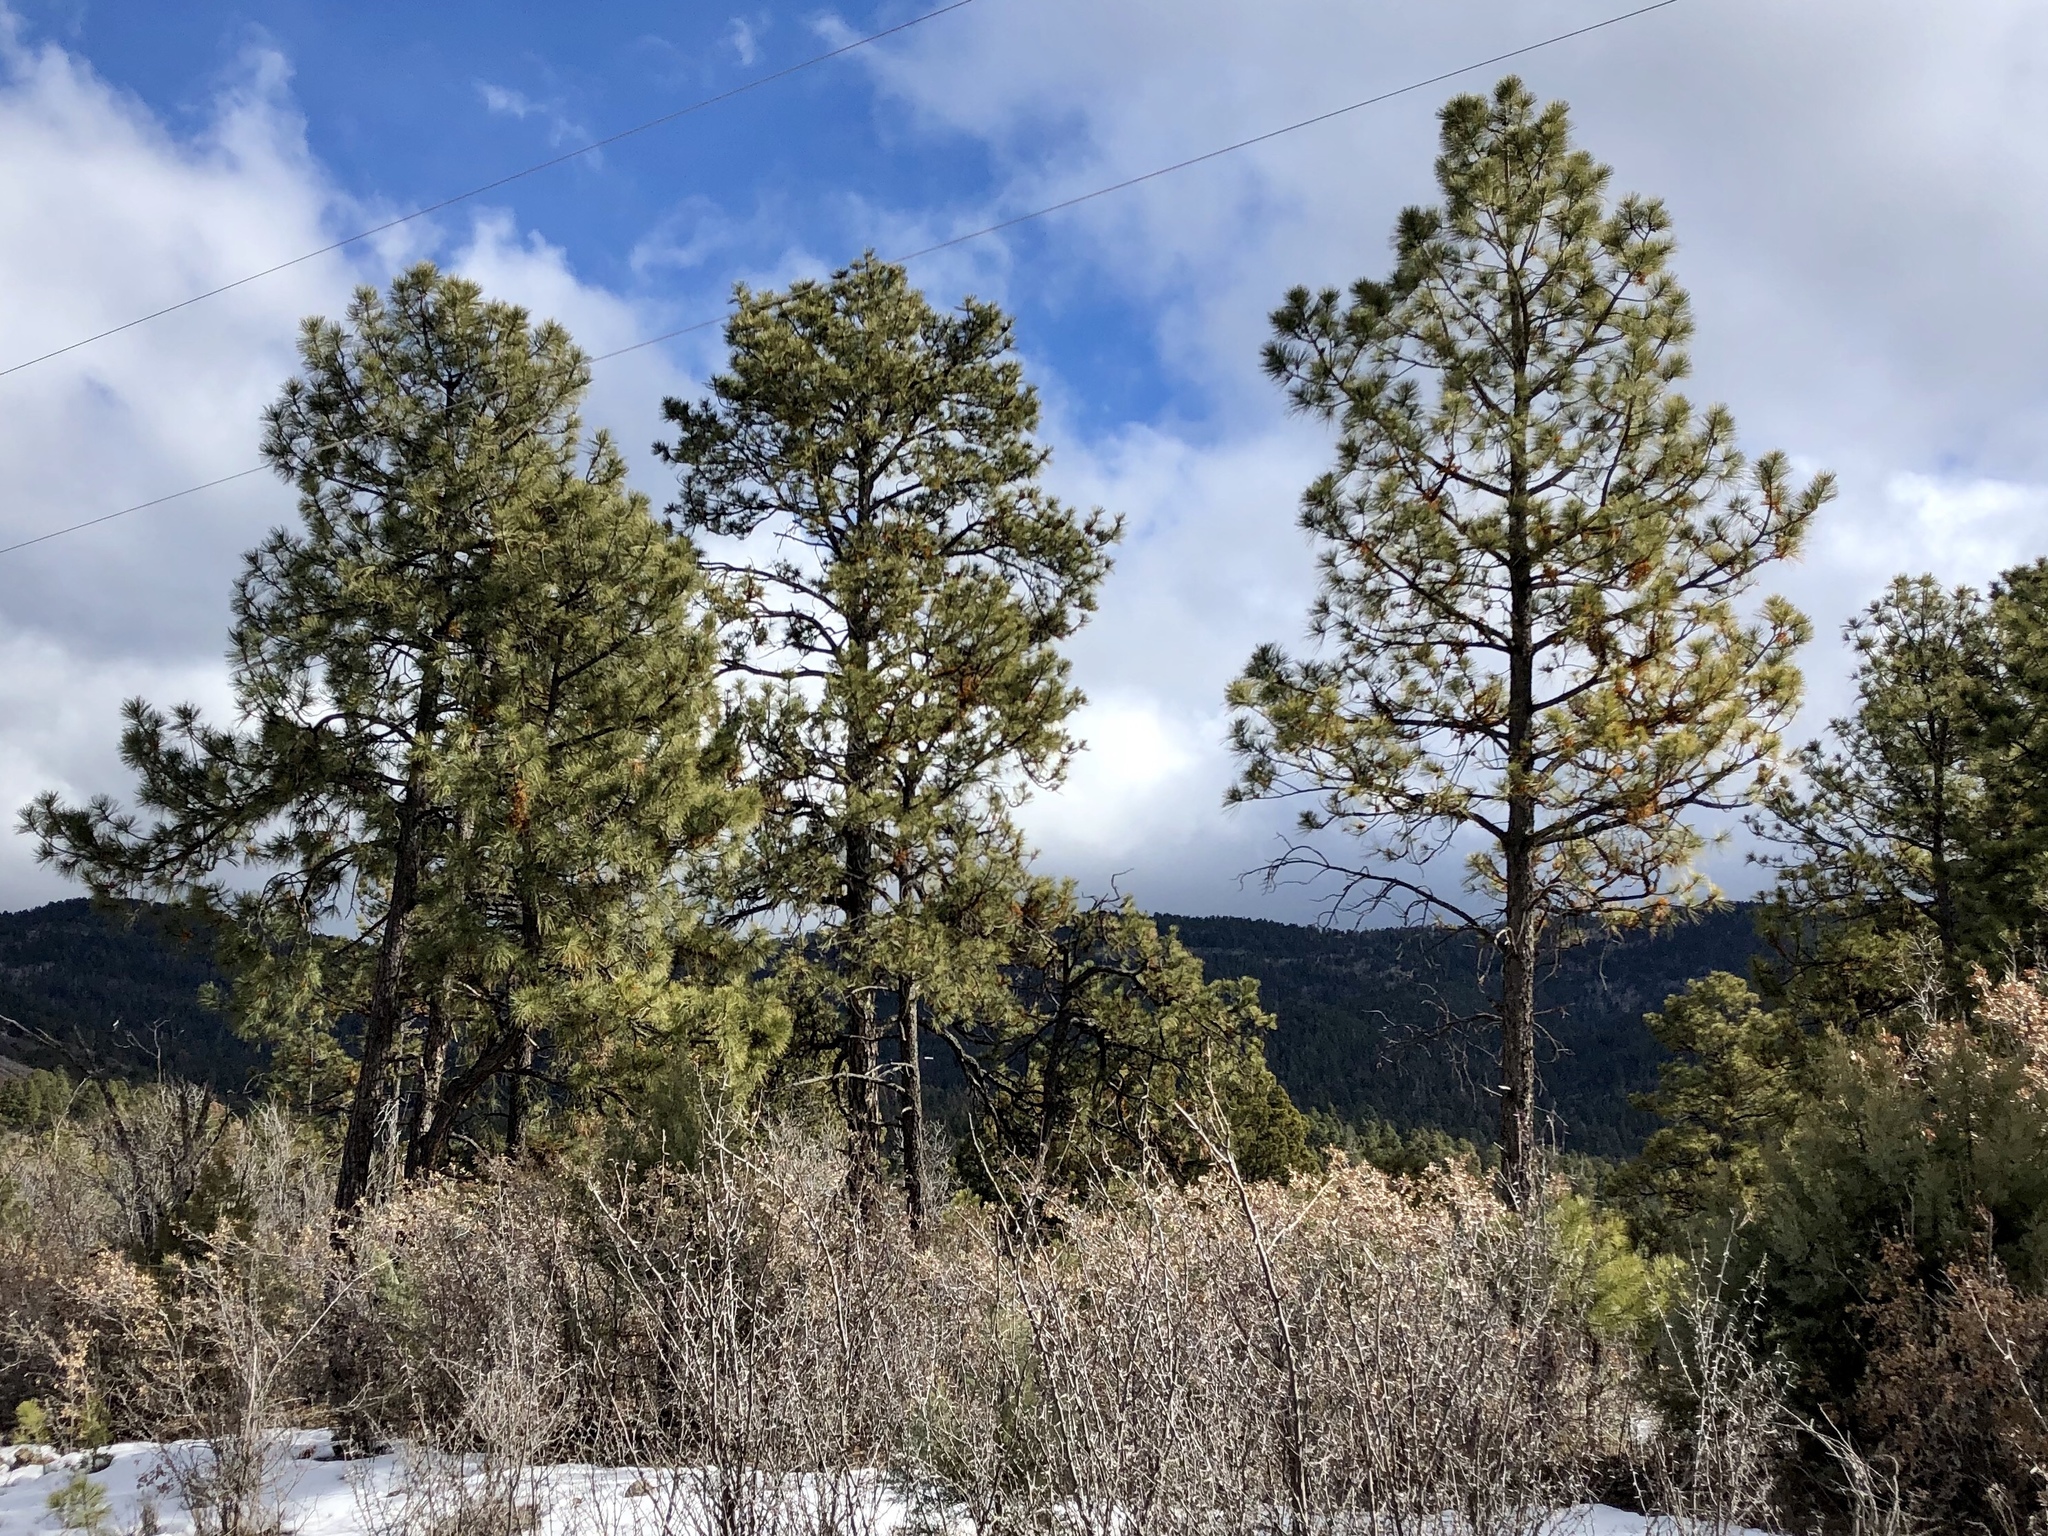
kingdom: Plantae
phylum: Tracheophyta
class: Pinopsida
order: Pinales
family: Pinaceae
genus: Pinus
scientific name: Pinus ponderosa
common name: Western yellow-pine
